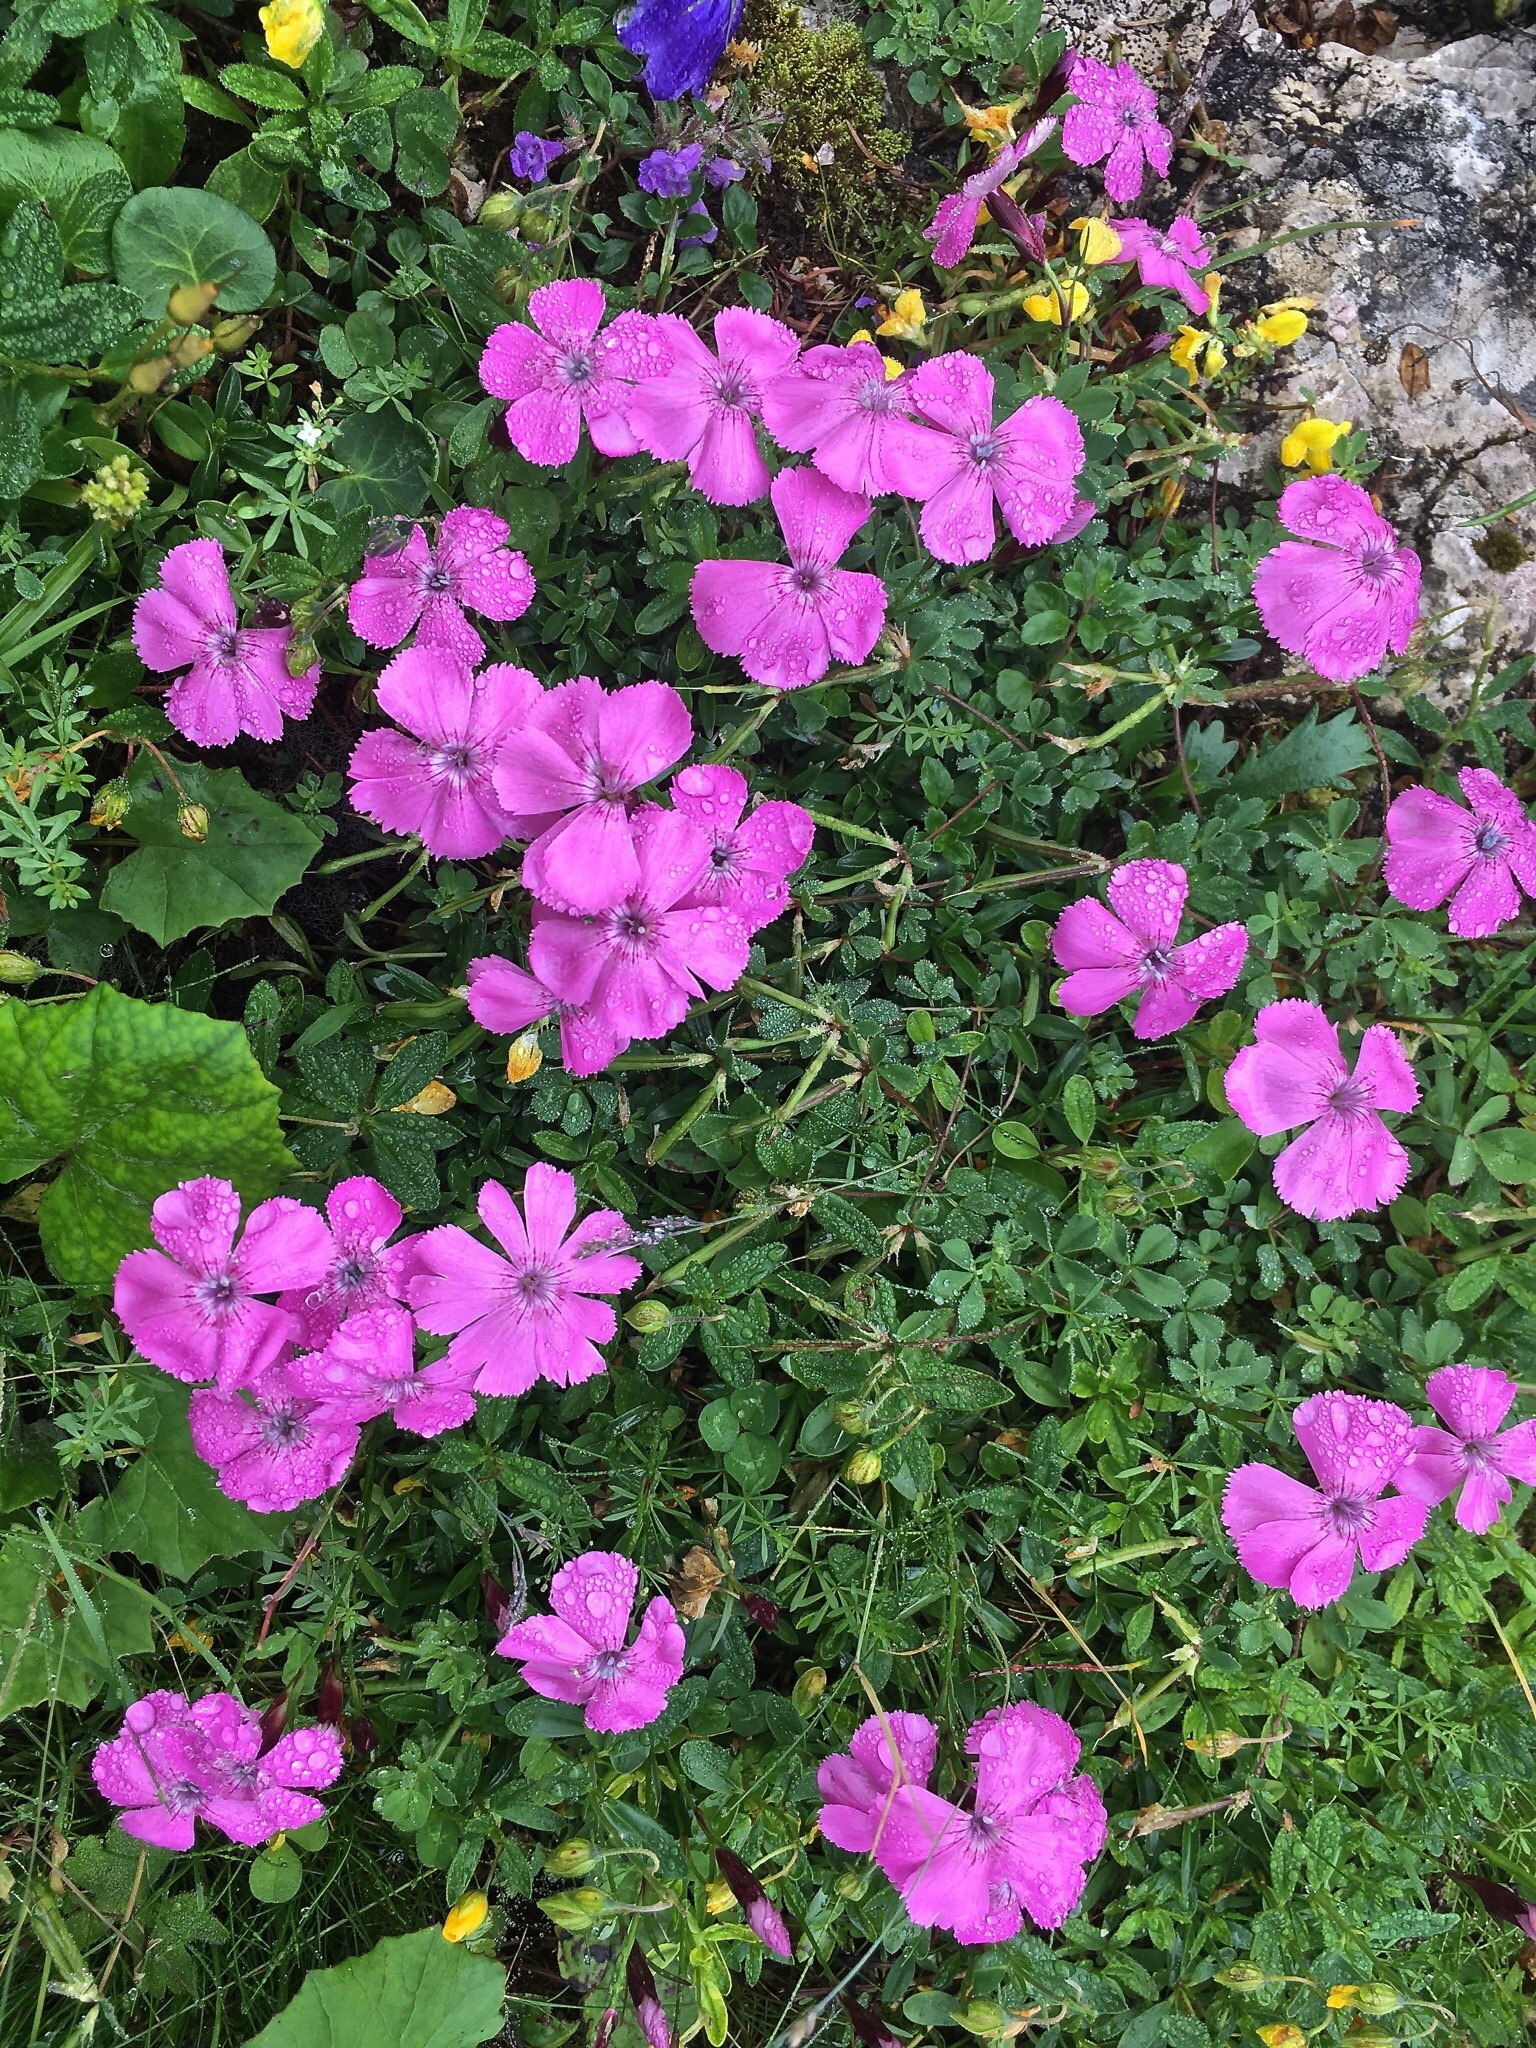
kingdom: Plantae
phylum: Tracheophyta
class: Magnoliopsida
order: Caryophyllales
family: Caryophyllaceae
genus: Dianthus
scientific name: Dianthus alpinus
